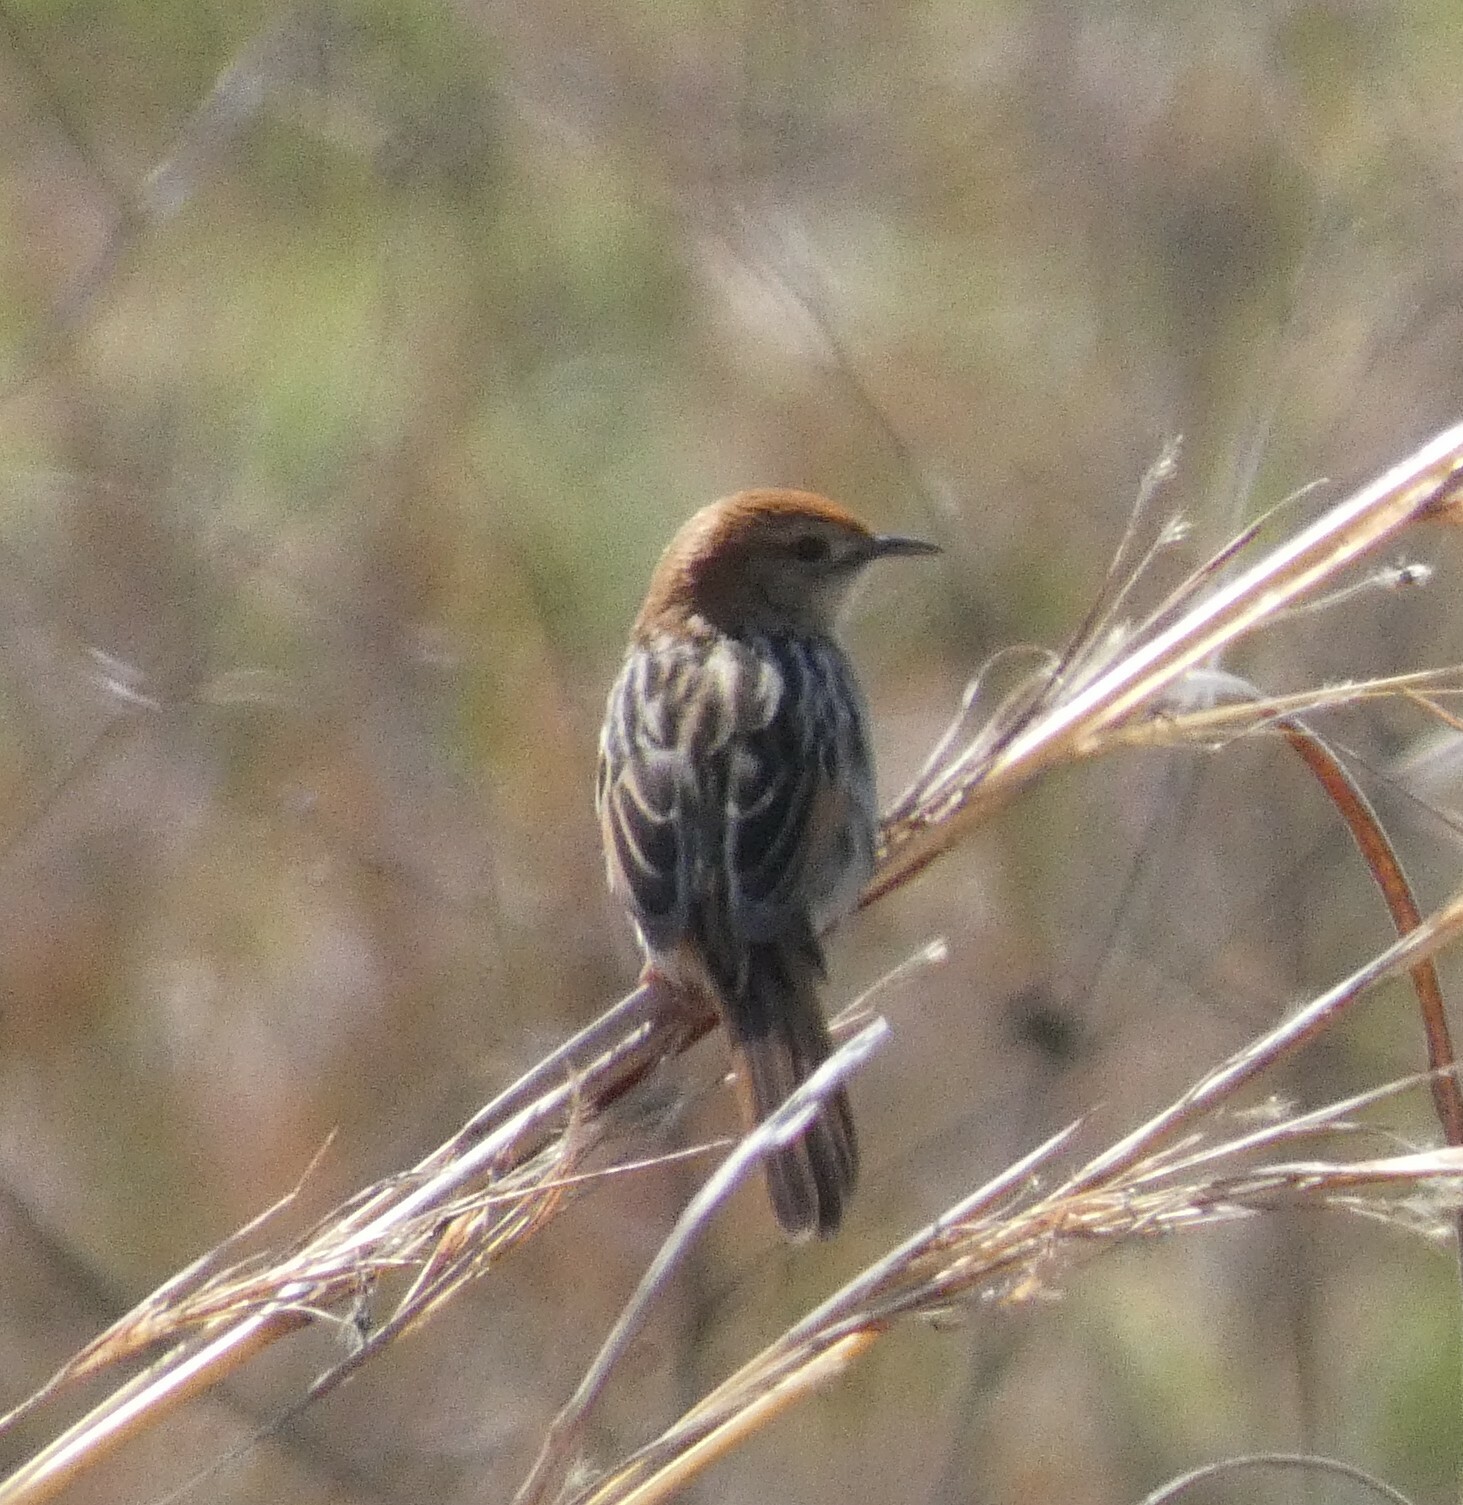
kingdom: Animalia
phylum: Chordata
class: Aves
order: Passeriformes
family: Cisticolidae
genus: Cisticola
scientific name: Cisticola tinniens
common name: Levaillant's cisticola
